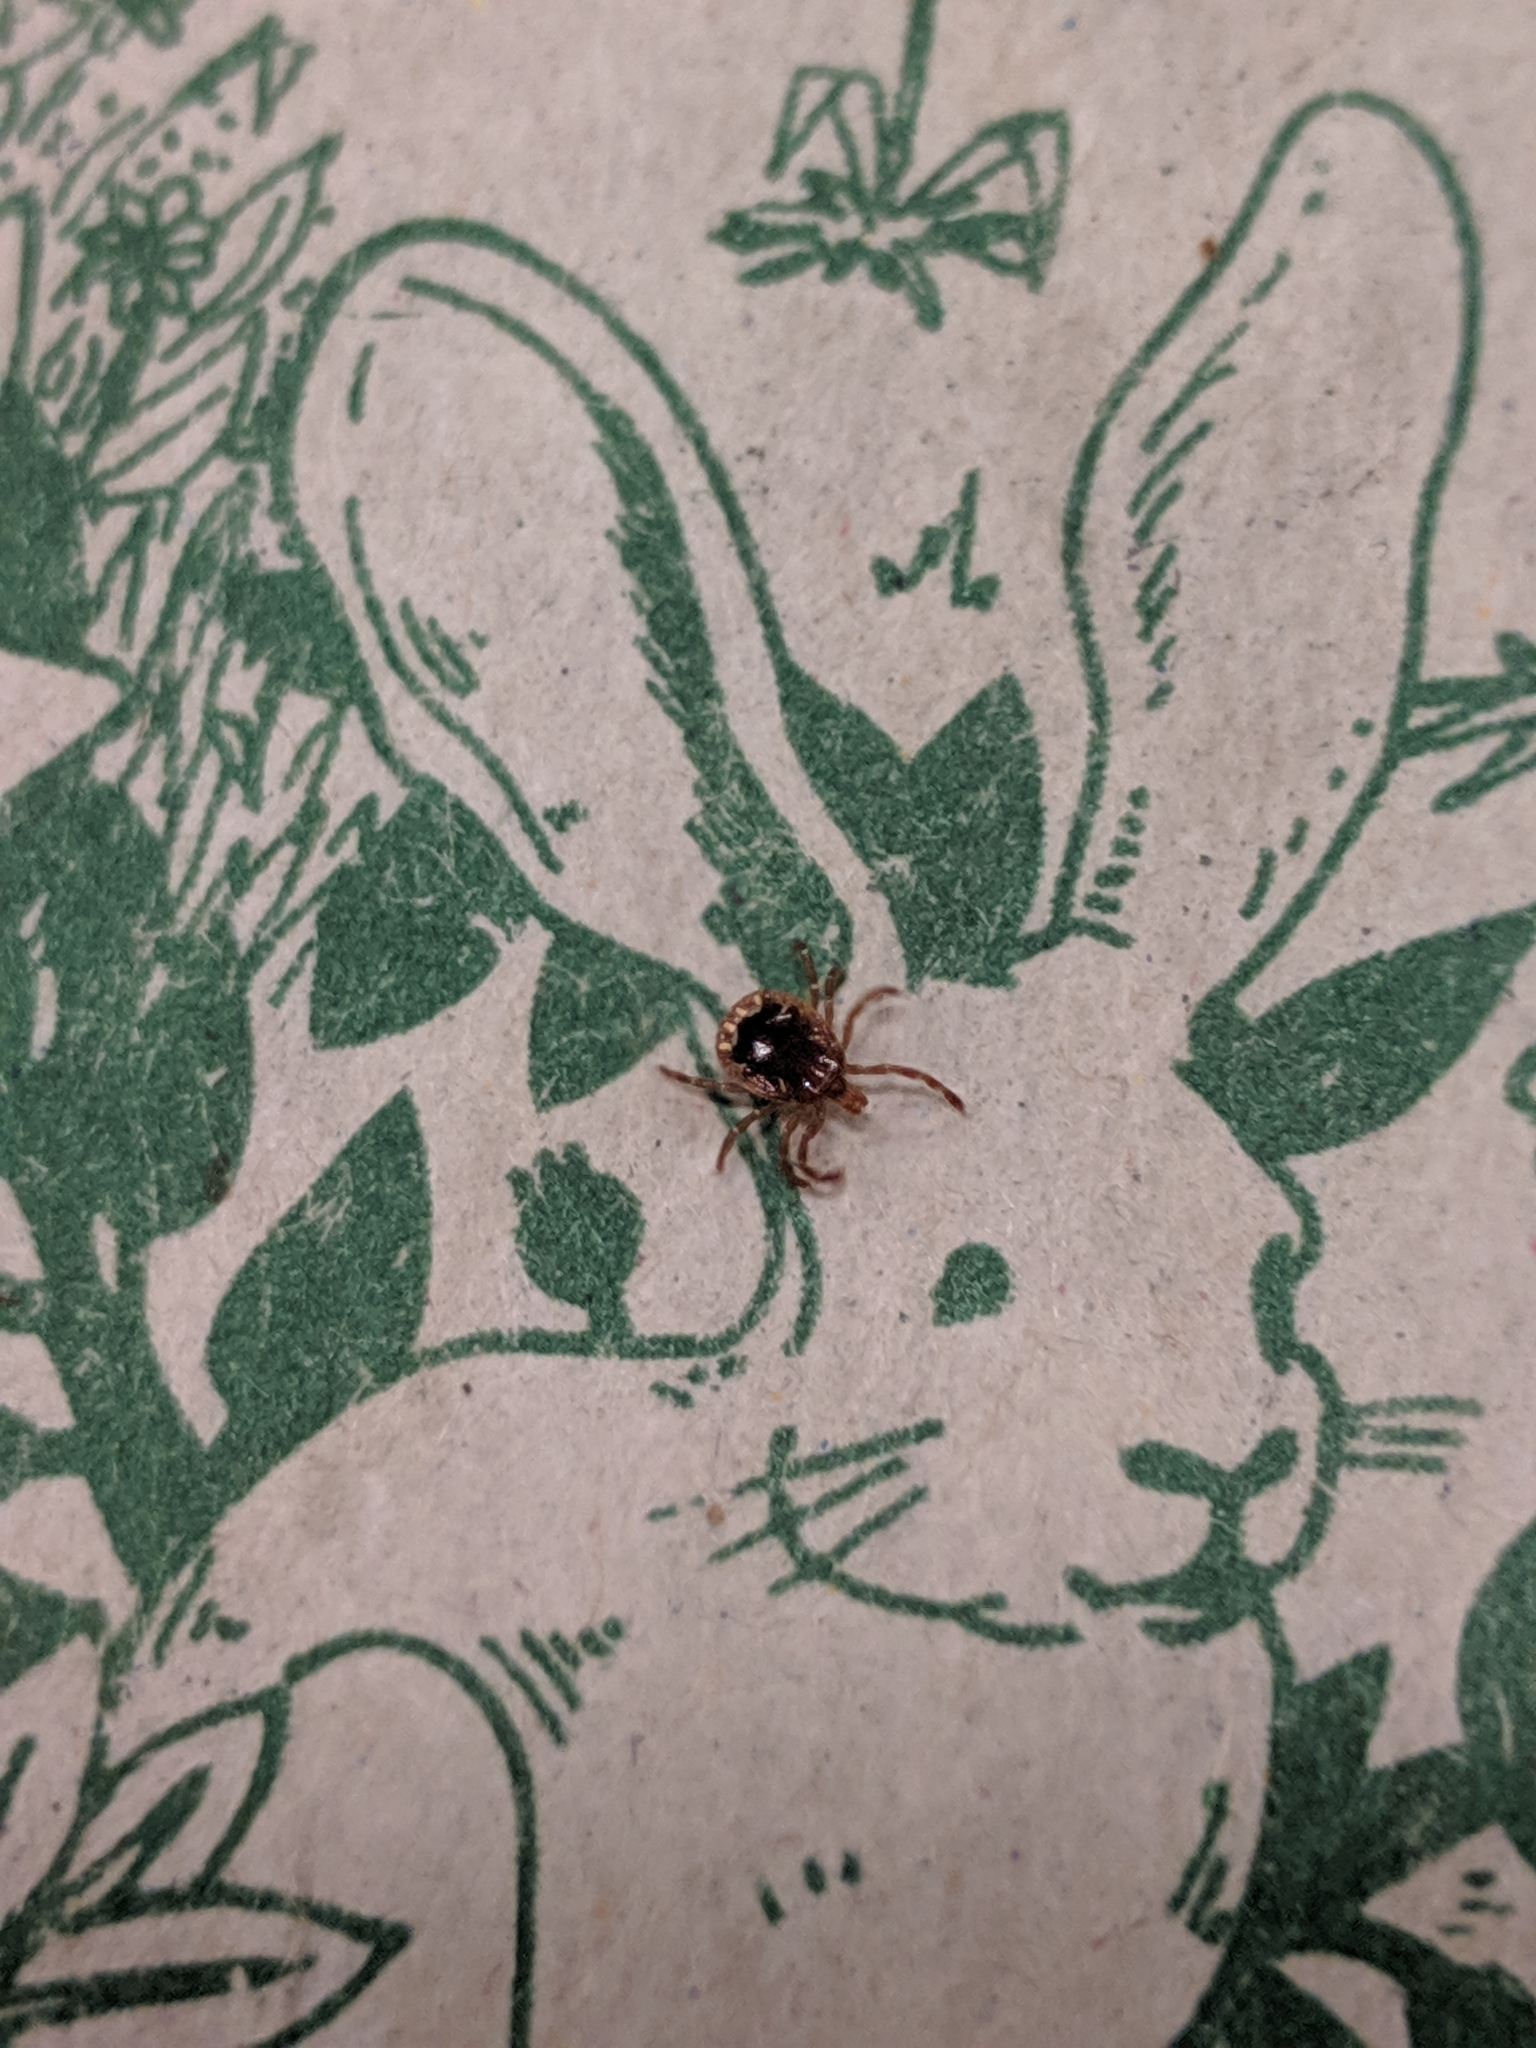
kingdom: Animalia
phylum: Arthropoda
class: Arachnida
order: Ixodida
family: Ixodidae
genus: Amblyomma
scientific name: Amblyomma americanum
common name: Lone star tick
